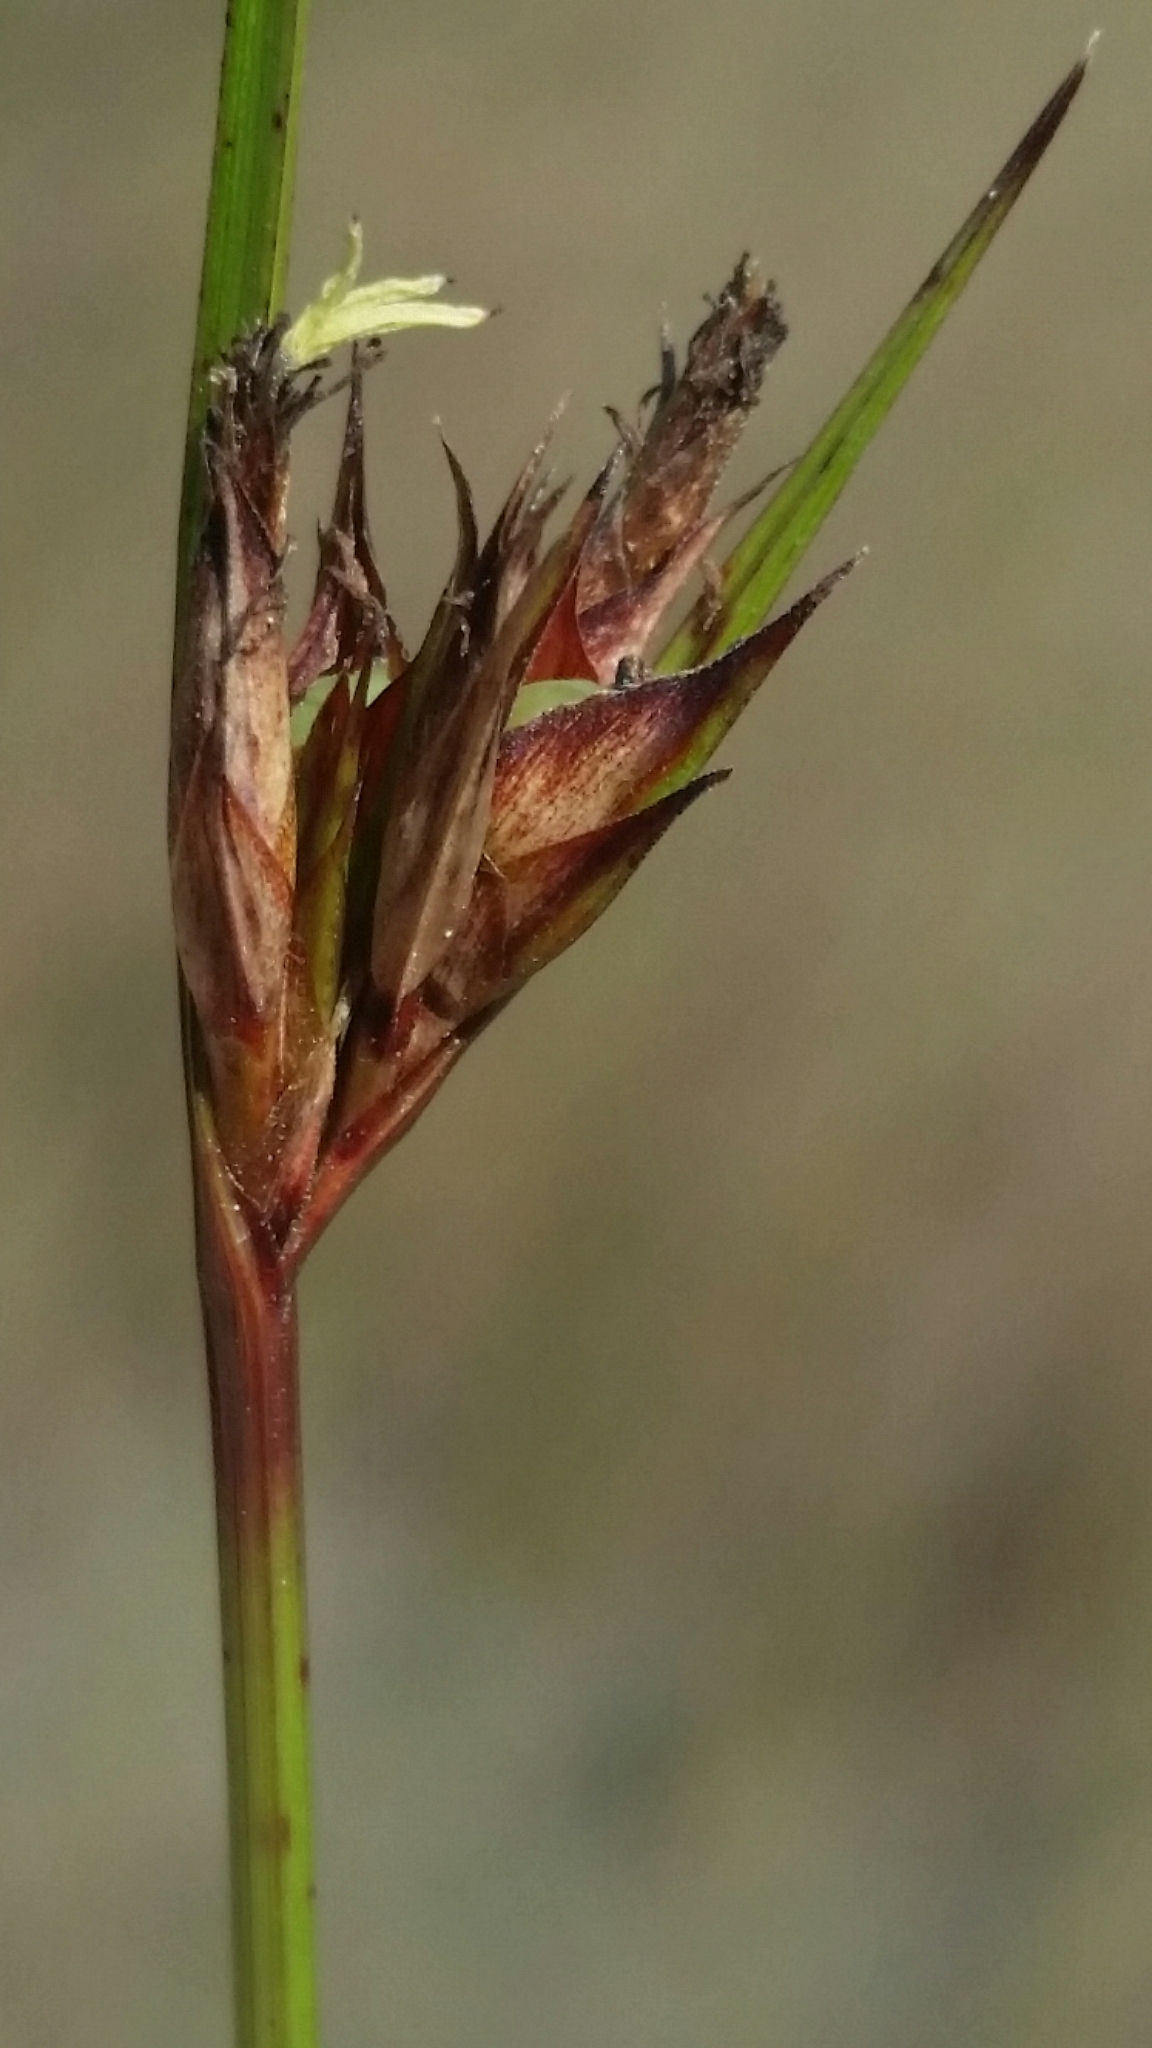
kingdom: Plantae
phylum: Tracheophyta
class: Liliopsida
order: Poales
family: Cyperaceae
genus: Scleria
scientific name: Scleria baldwinii
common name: Baldwin's nutrush
